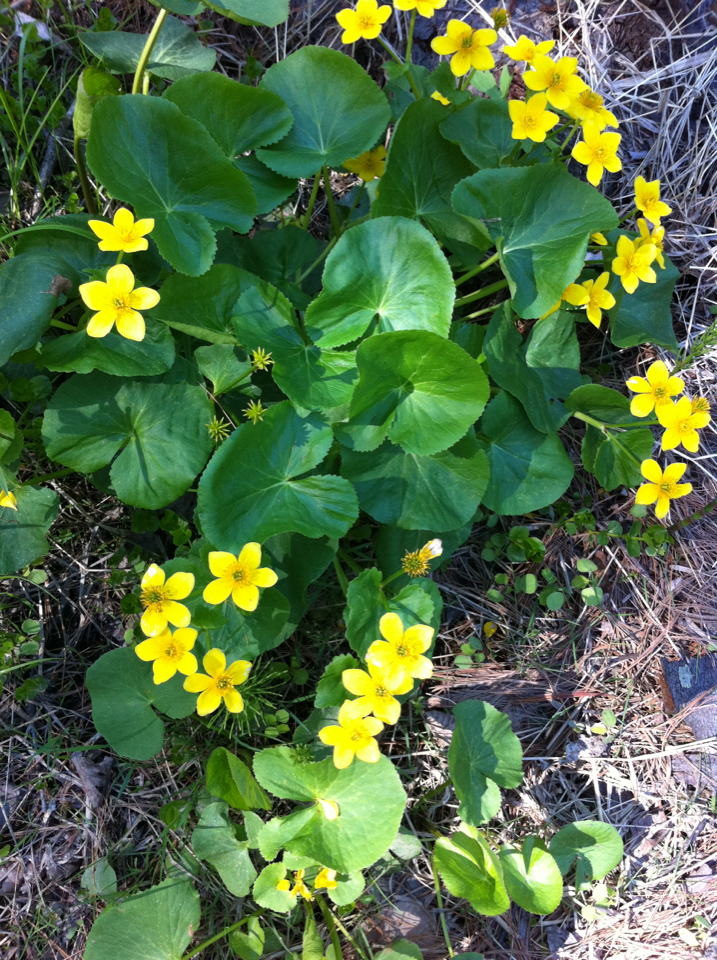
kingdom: Plantae
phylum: Tracheophyta
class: Magnoliopsida
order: Ranunculales
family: Ranunculaceae
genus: Caltha
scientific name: Caltha palustris
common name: Marsh marigold
